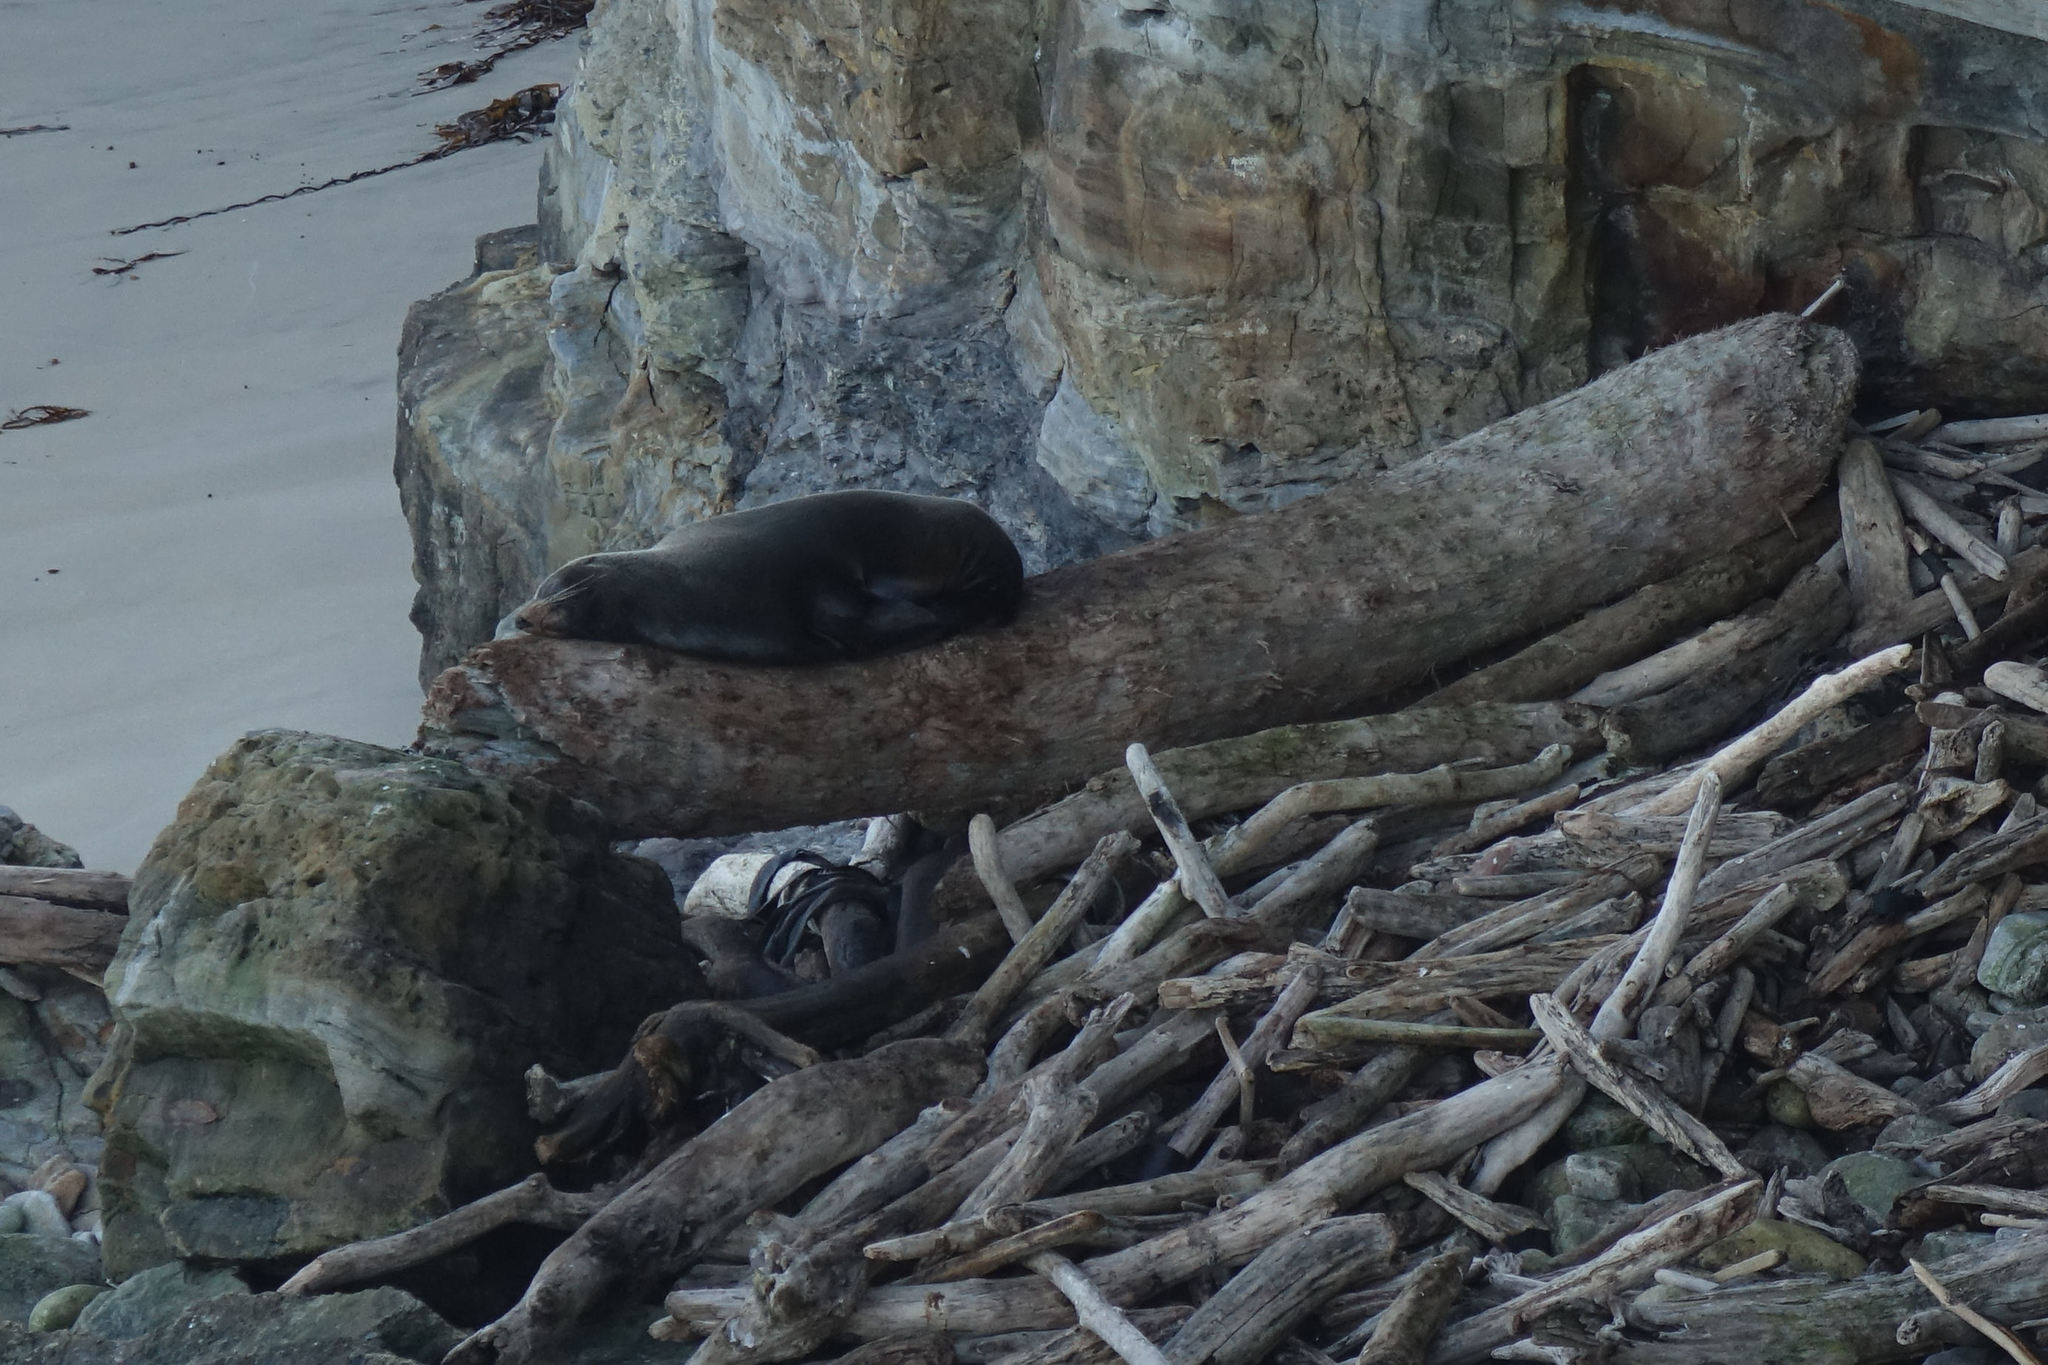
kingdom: Animalia
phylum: Chordata
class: Mammalia
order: Carnivora
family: Otariidae
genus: Arctocephalus
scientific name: Arctocephalus forsteri
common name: New zealand fur seal
